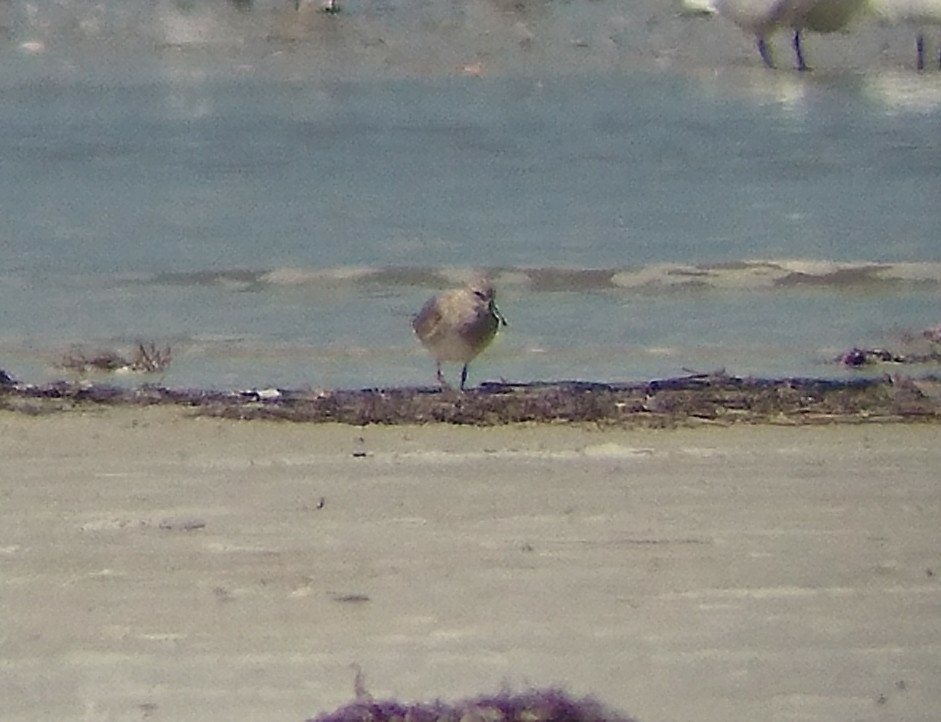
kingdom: Animalia
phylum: Chordata
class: Aves
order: Charadriiformes
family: Scolopacidae
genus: Calidris
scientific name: Calidris canutus
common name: Red knot
